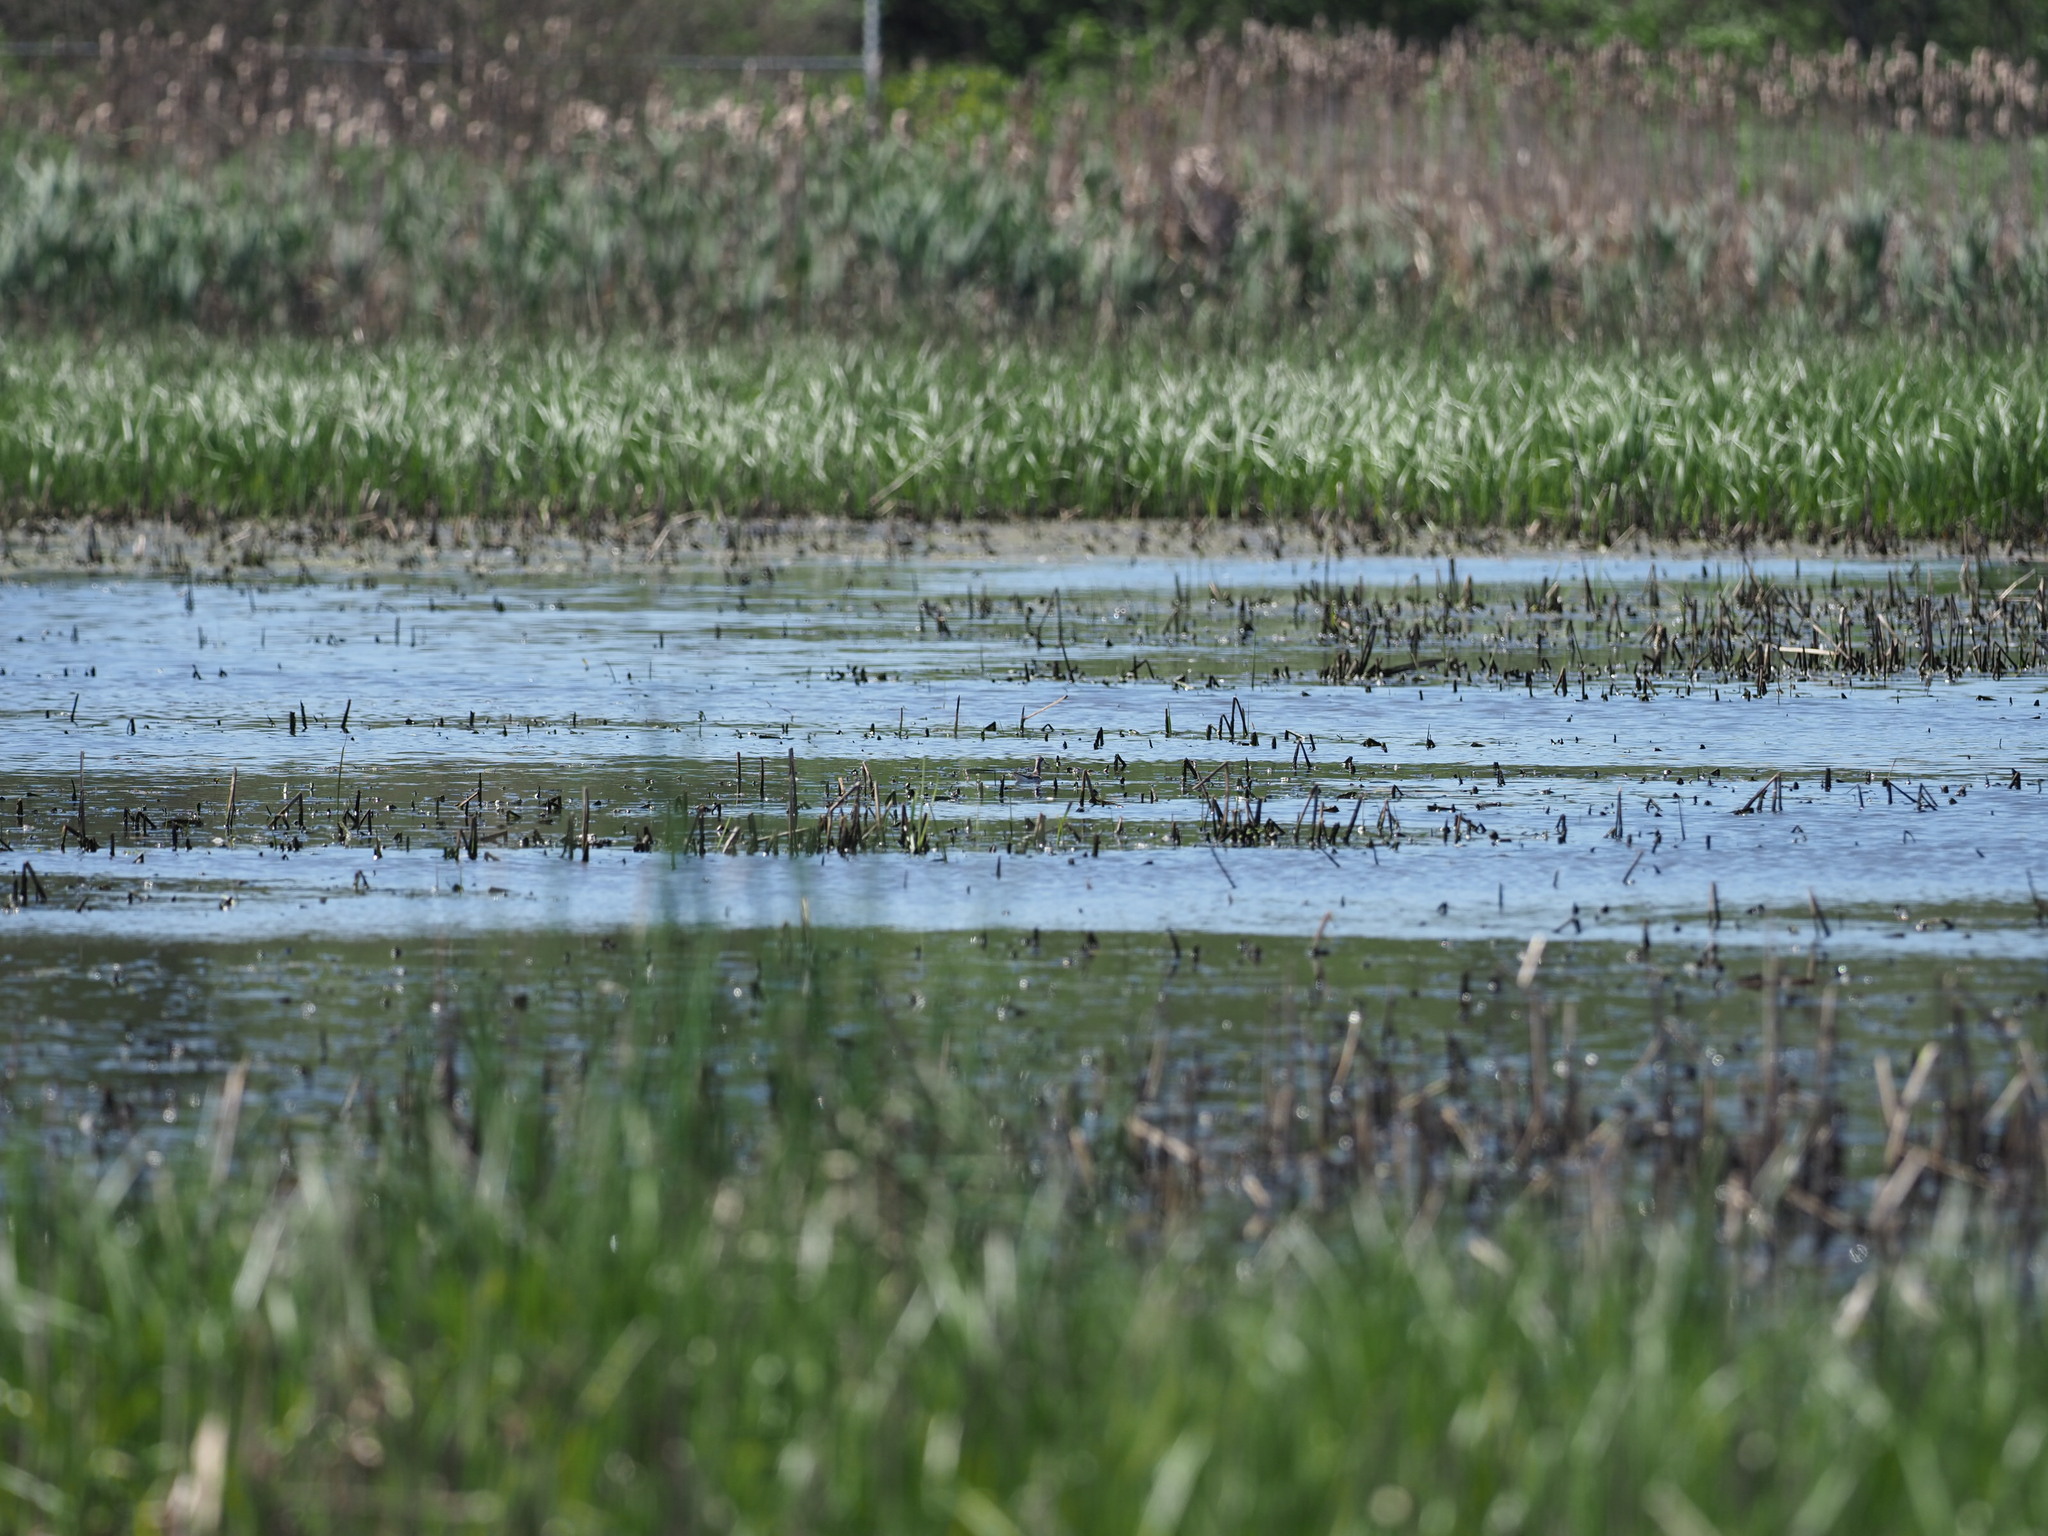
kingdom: Animalia
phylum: Chordata
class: Aves
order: Charadriiformes
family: Scolopacidae
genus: Phalaropus
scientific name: Phalaropus tricolor
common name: Wilson's phalarope
